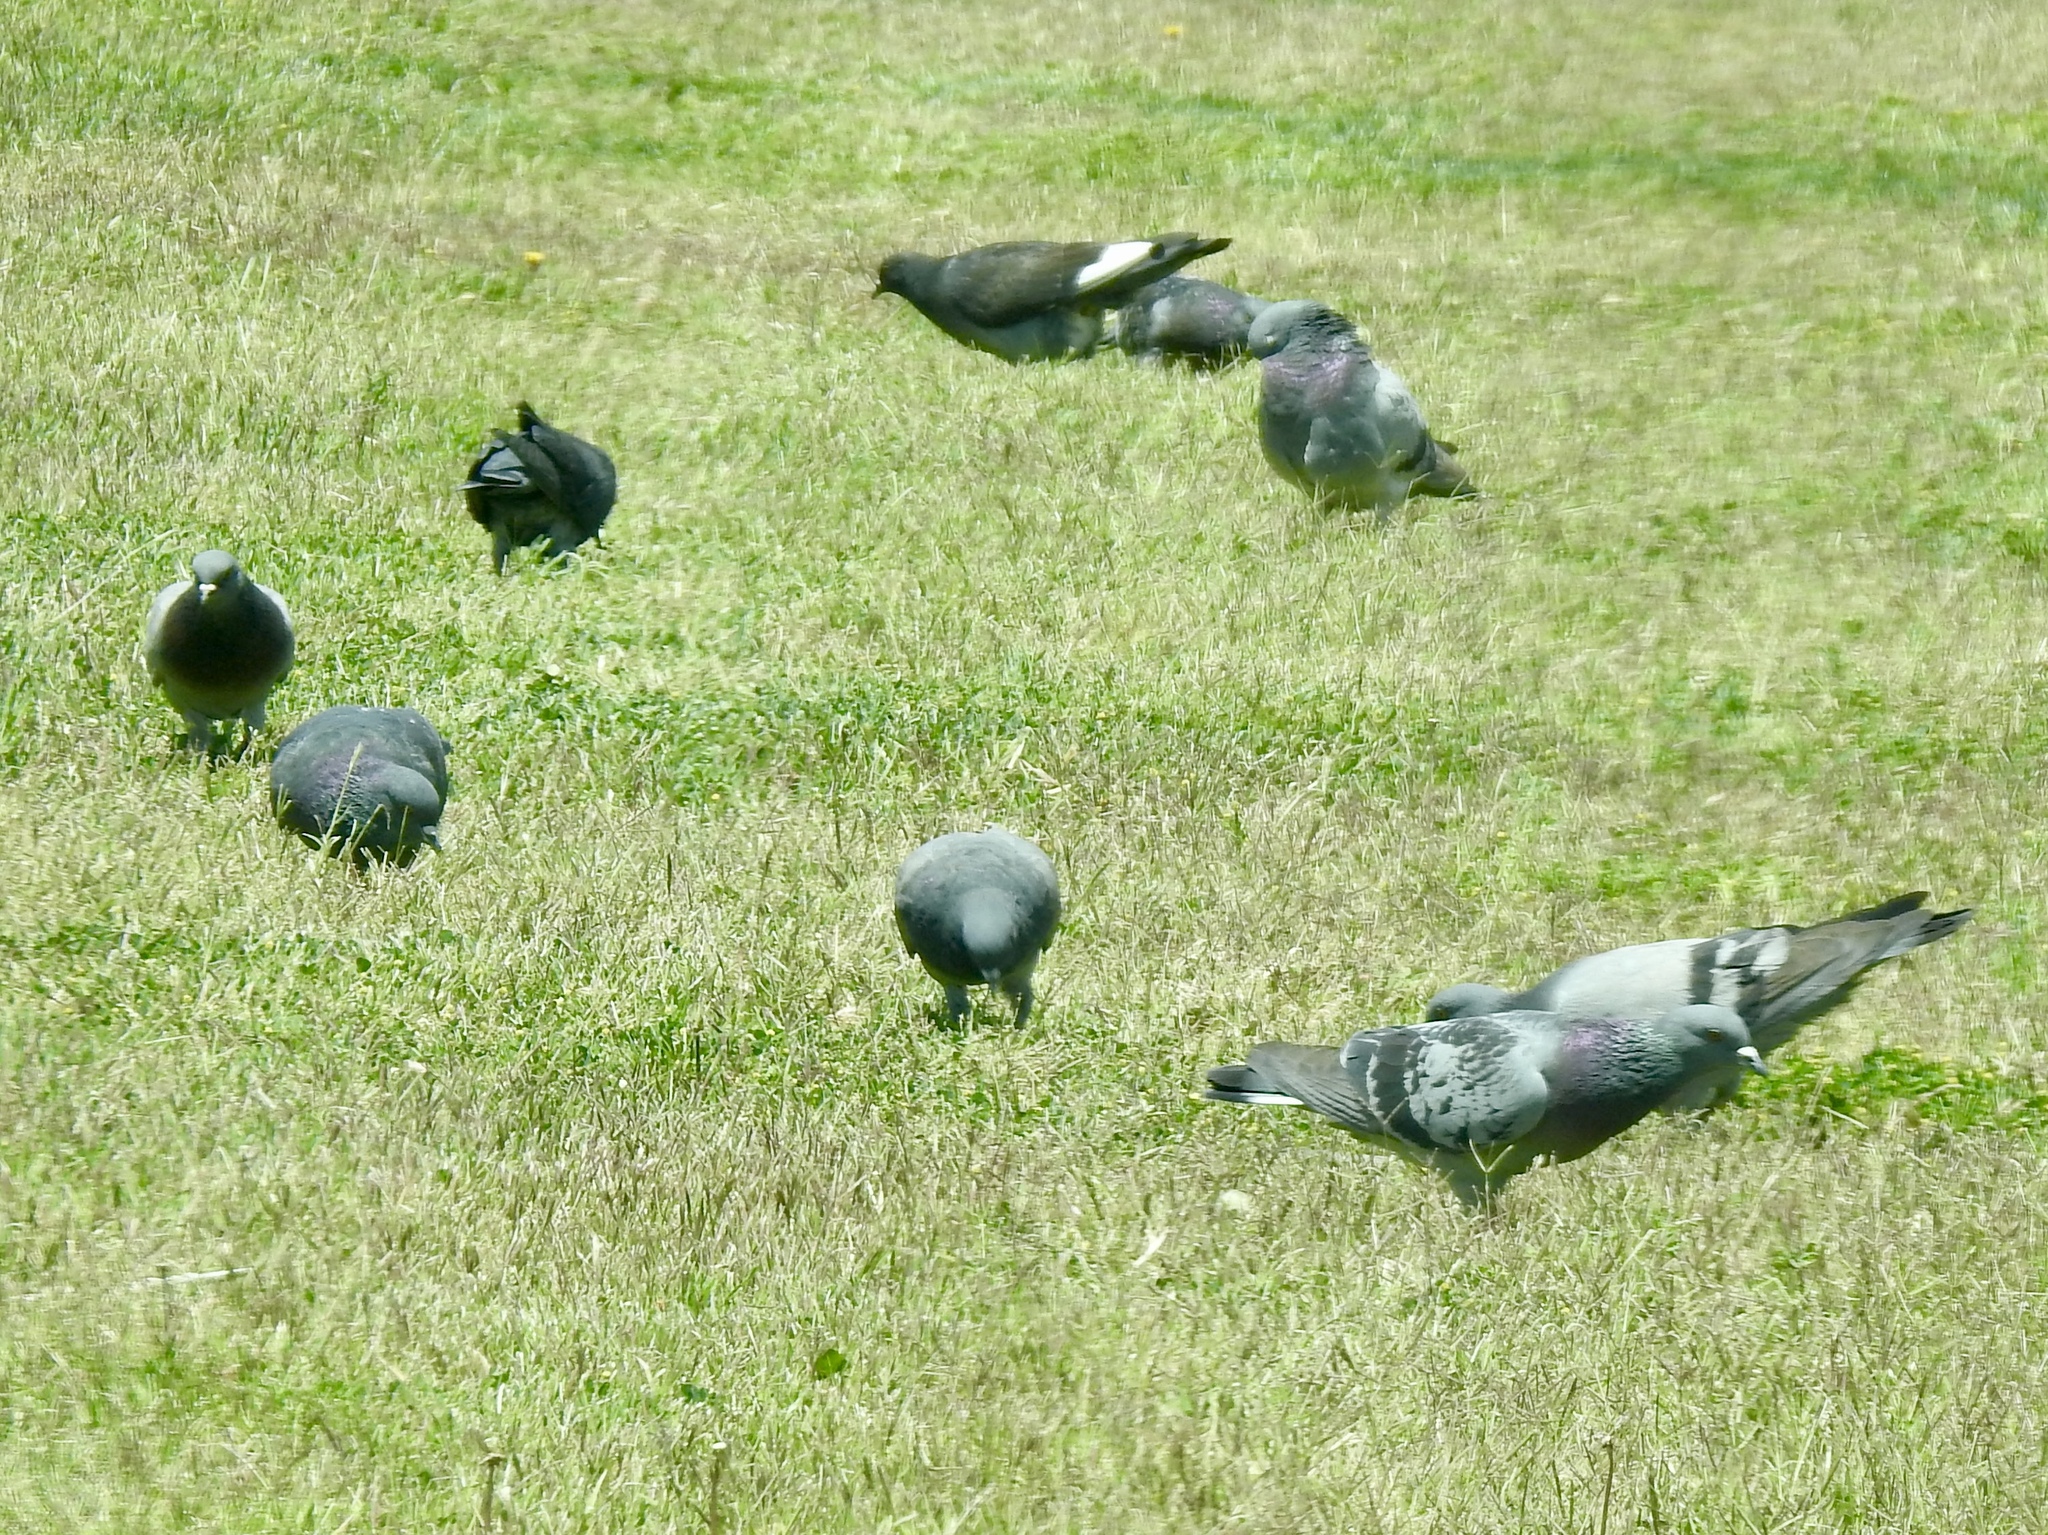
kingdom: Animalia
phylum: Chordata
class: Aves
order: Columbiformes
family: Columbidae
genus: Columba
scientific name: Columba livia
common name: Rock pigeon
